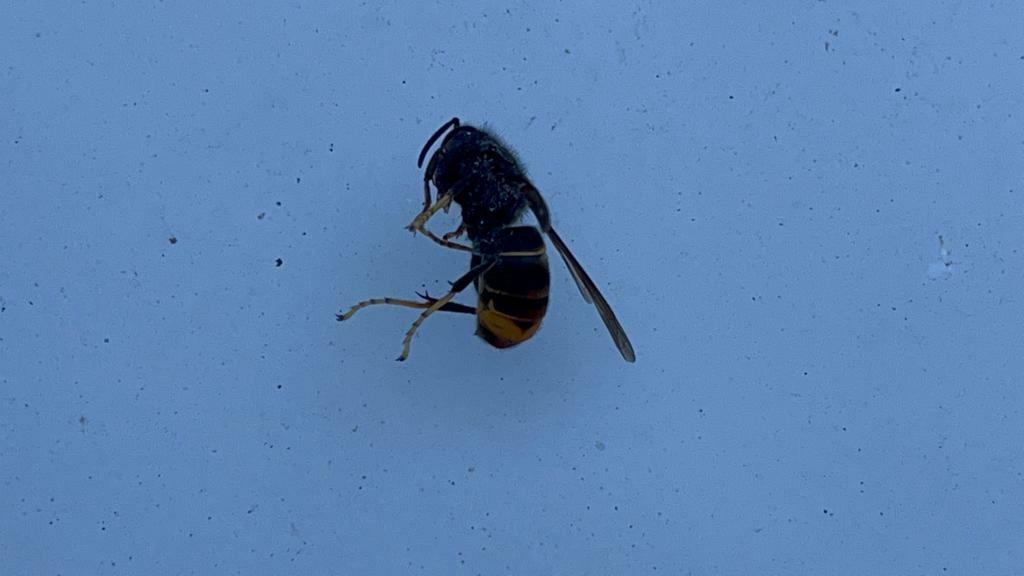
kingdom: Animalia
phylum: Arthropoda
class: Insecta
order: Hymenoptera
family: Vespidae
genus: Vespa
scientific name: Vespa velutina
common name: Asian hornet
